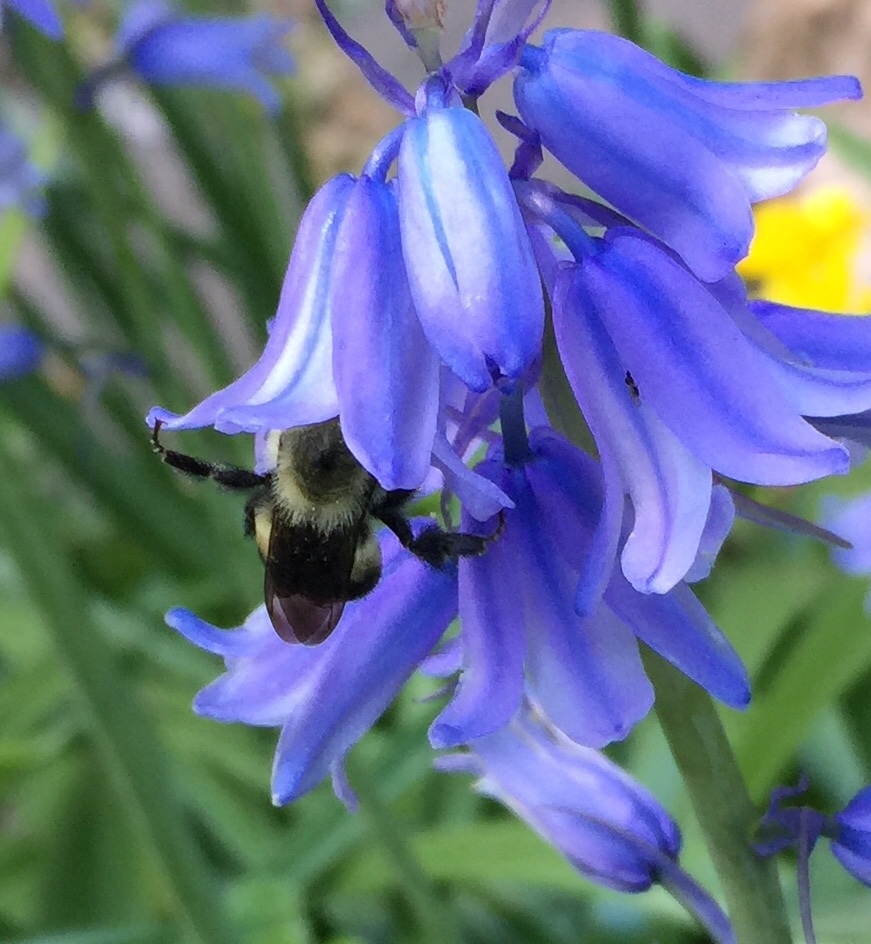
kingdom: Animalia
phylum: Arthropoda
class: Insecta
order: Hymenoptera
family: Apidae
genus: Bombus
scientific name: Bombus griseocollis
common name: Brown-belted bumble bee
